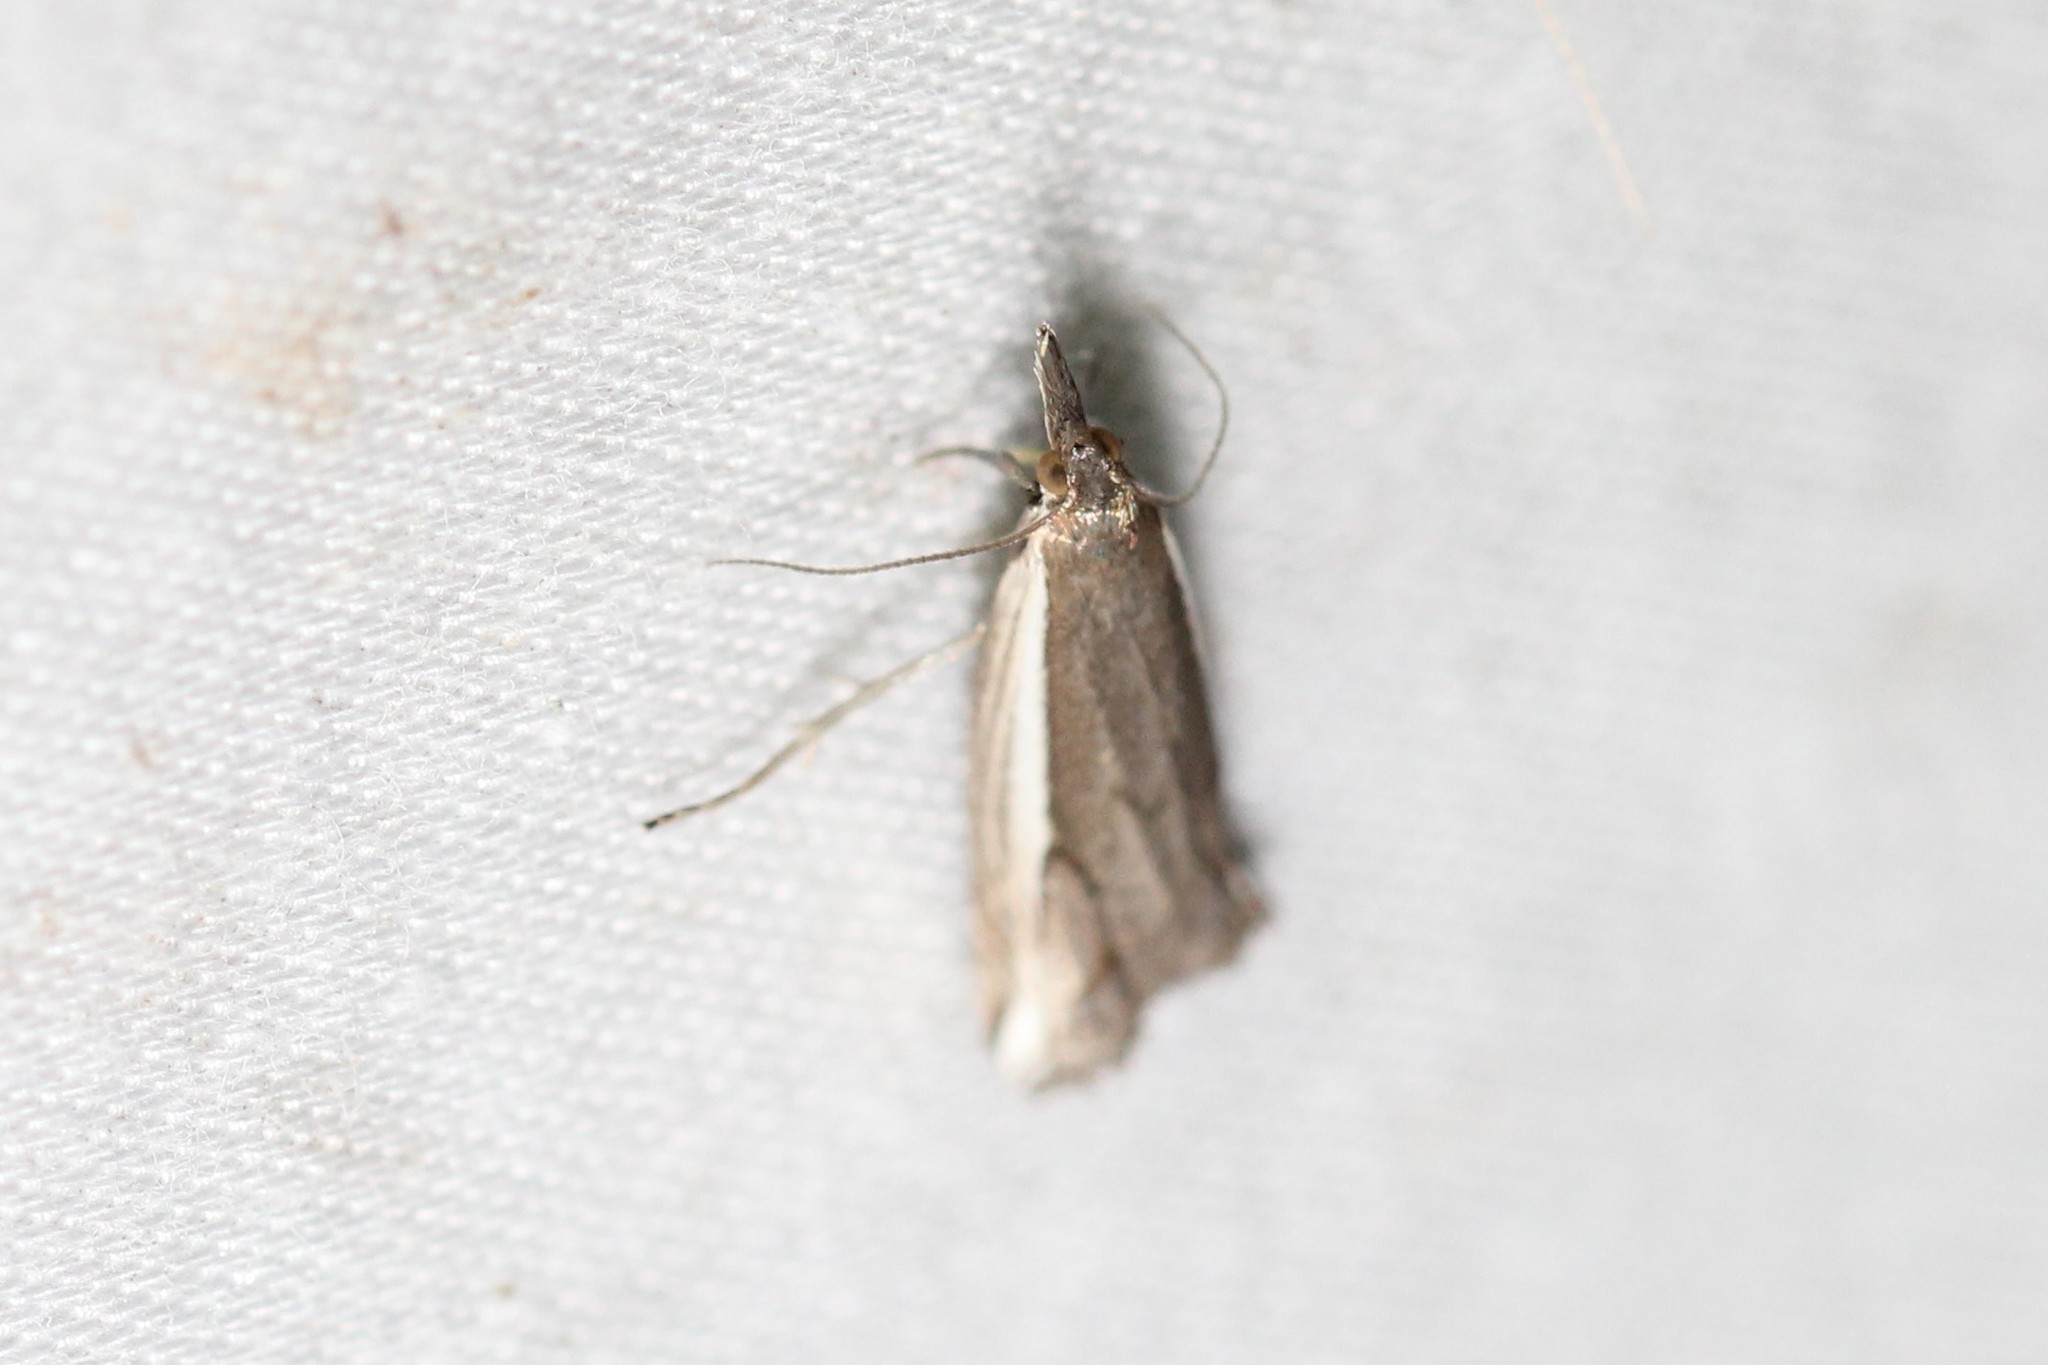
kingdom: Animalia
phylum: Arthropoda
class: Insecta
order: Lepidoptera
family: Crambidae
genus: Raphiptera
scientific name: Raphiptera argillaceellus
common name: Diminutive grass-veneer
